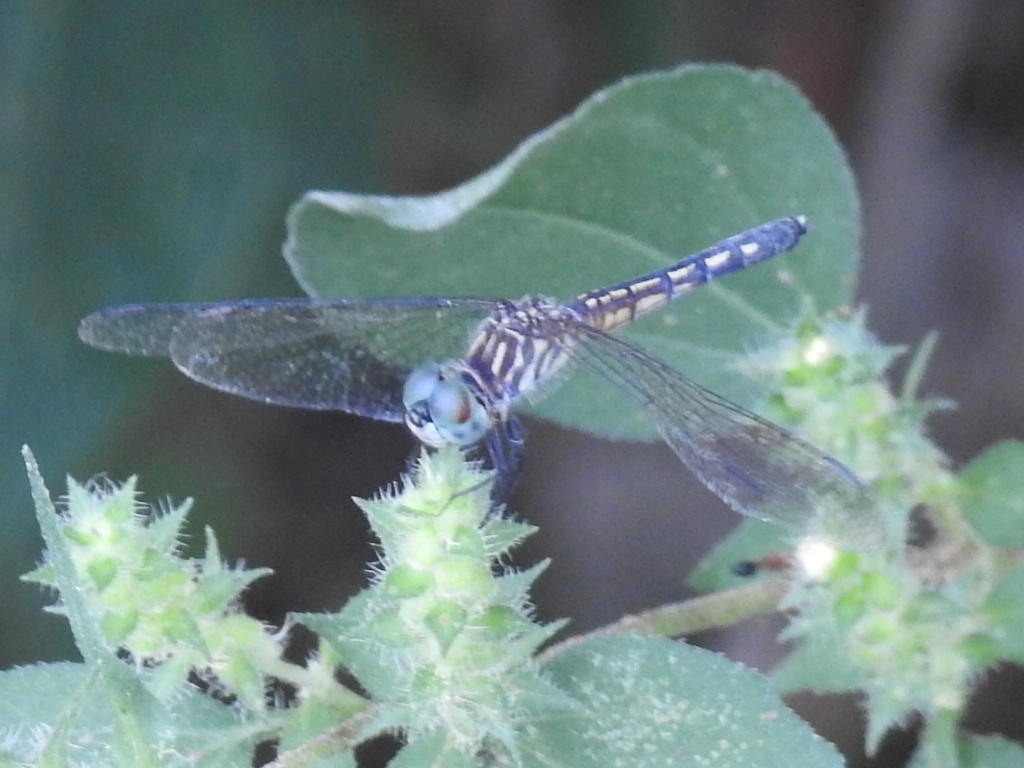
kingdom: Animalia
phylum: Arthropoda
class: Insecta
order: Odonata
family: Libellulidae
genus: Pachydiplax
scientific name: Pachydiplax longipennis
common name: Blue dasher
